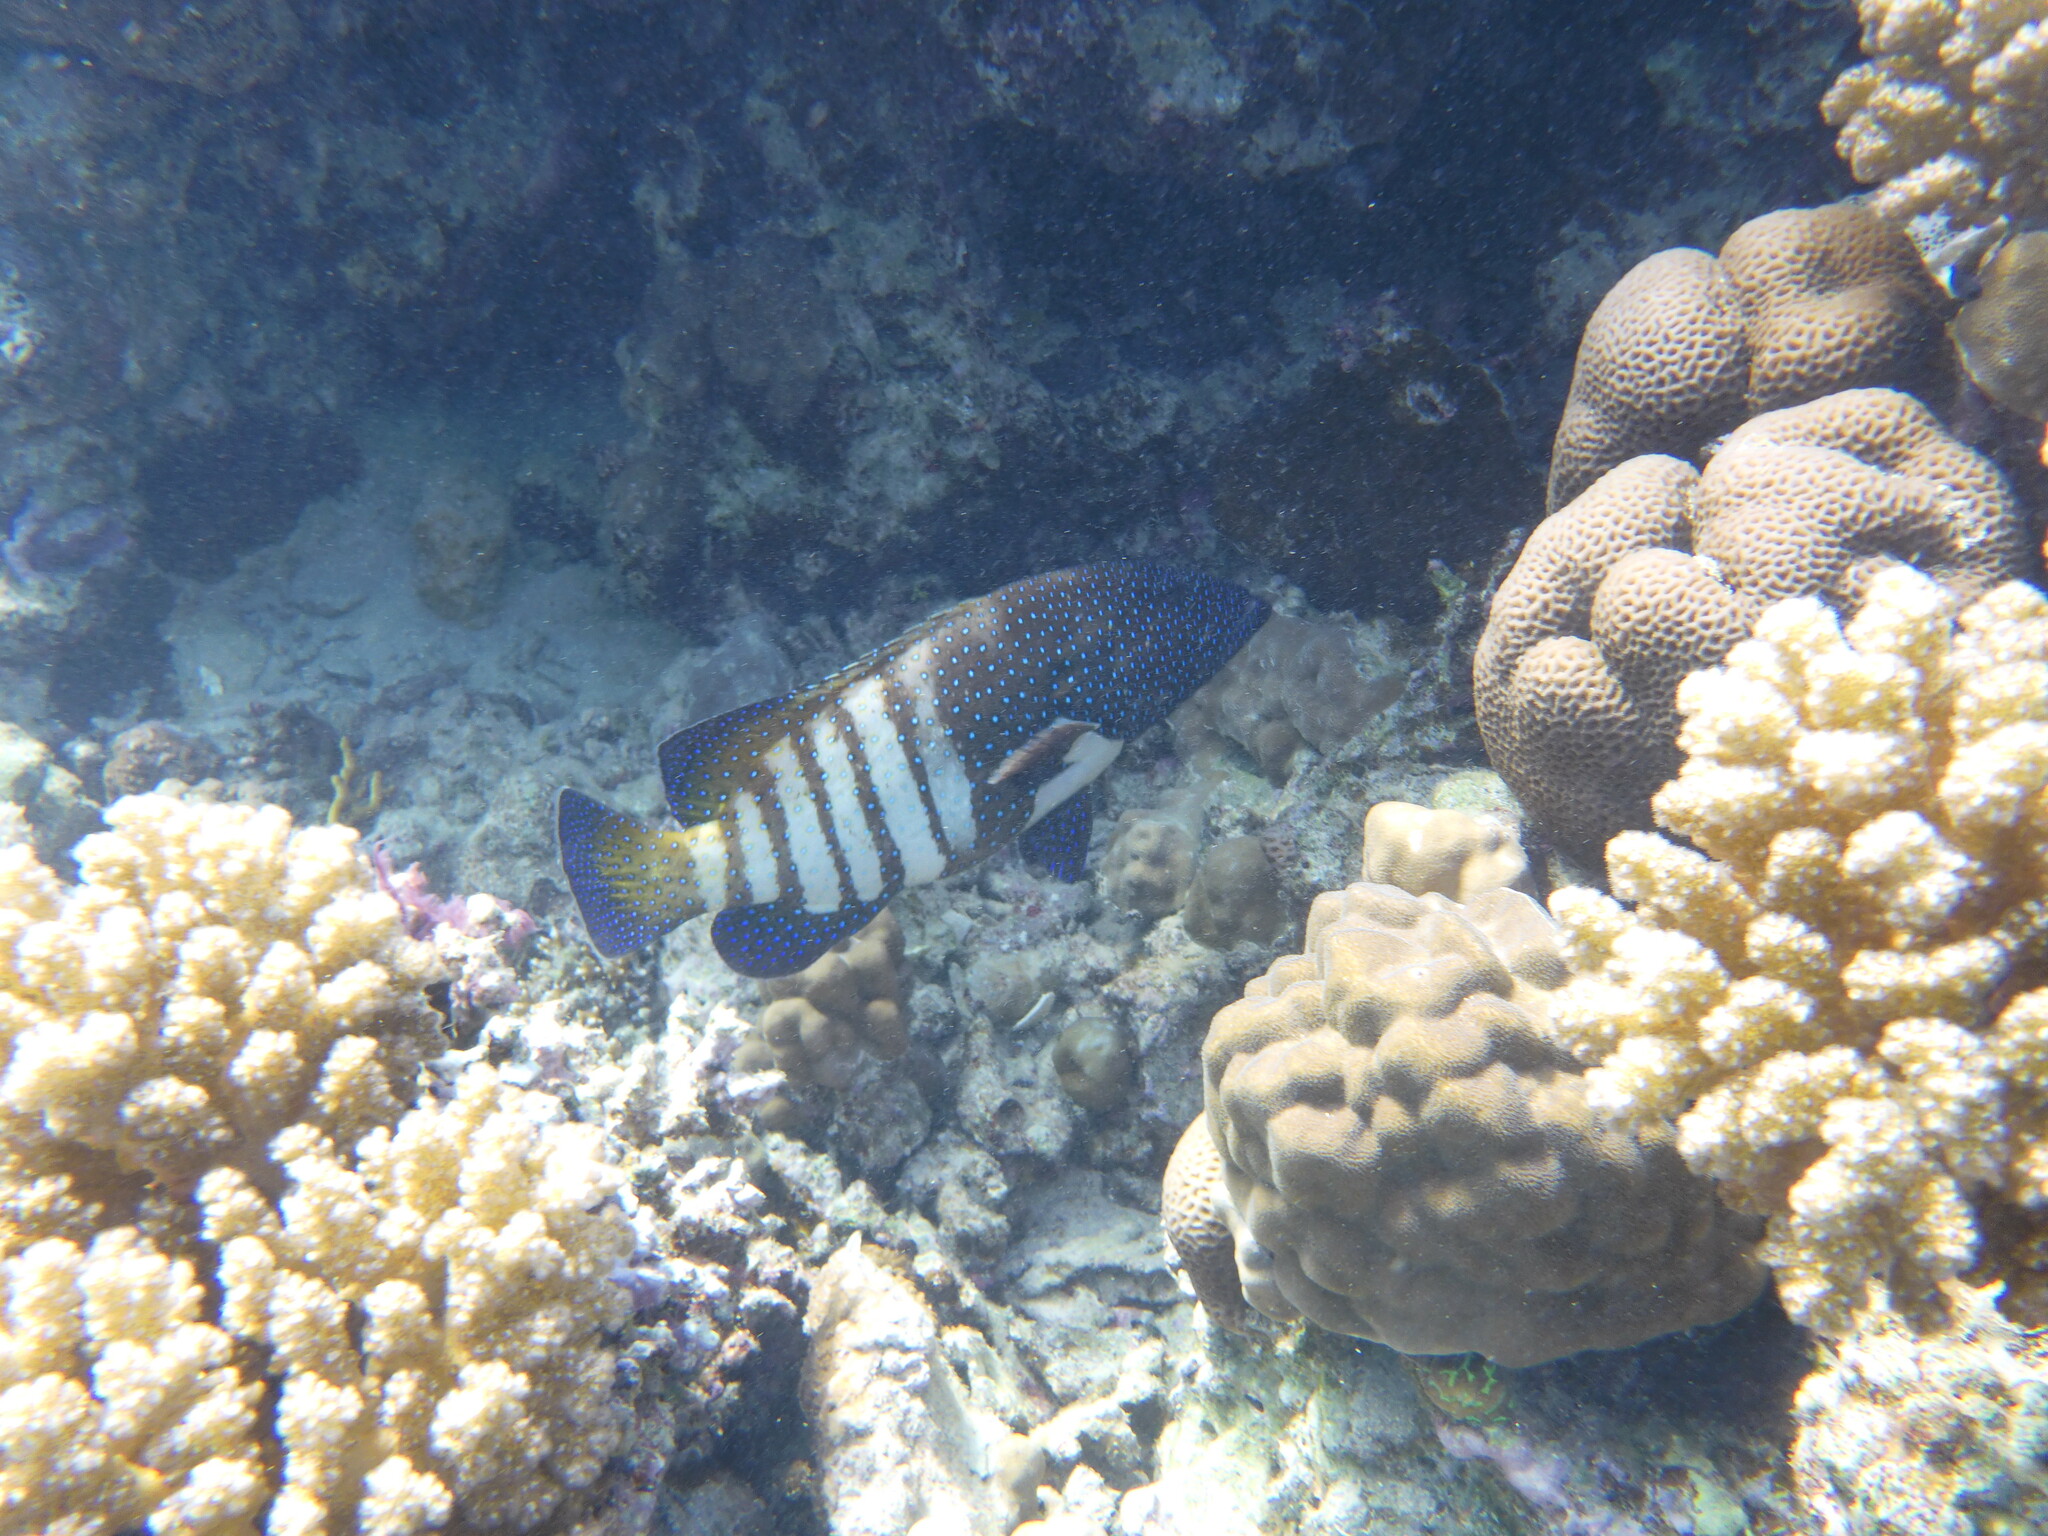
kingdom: Animalia
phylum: Chordata
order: Perciformes
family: Serranidae
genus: Cephalopholis
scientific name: Cephalopholis argus
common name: Peacock grouper
